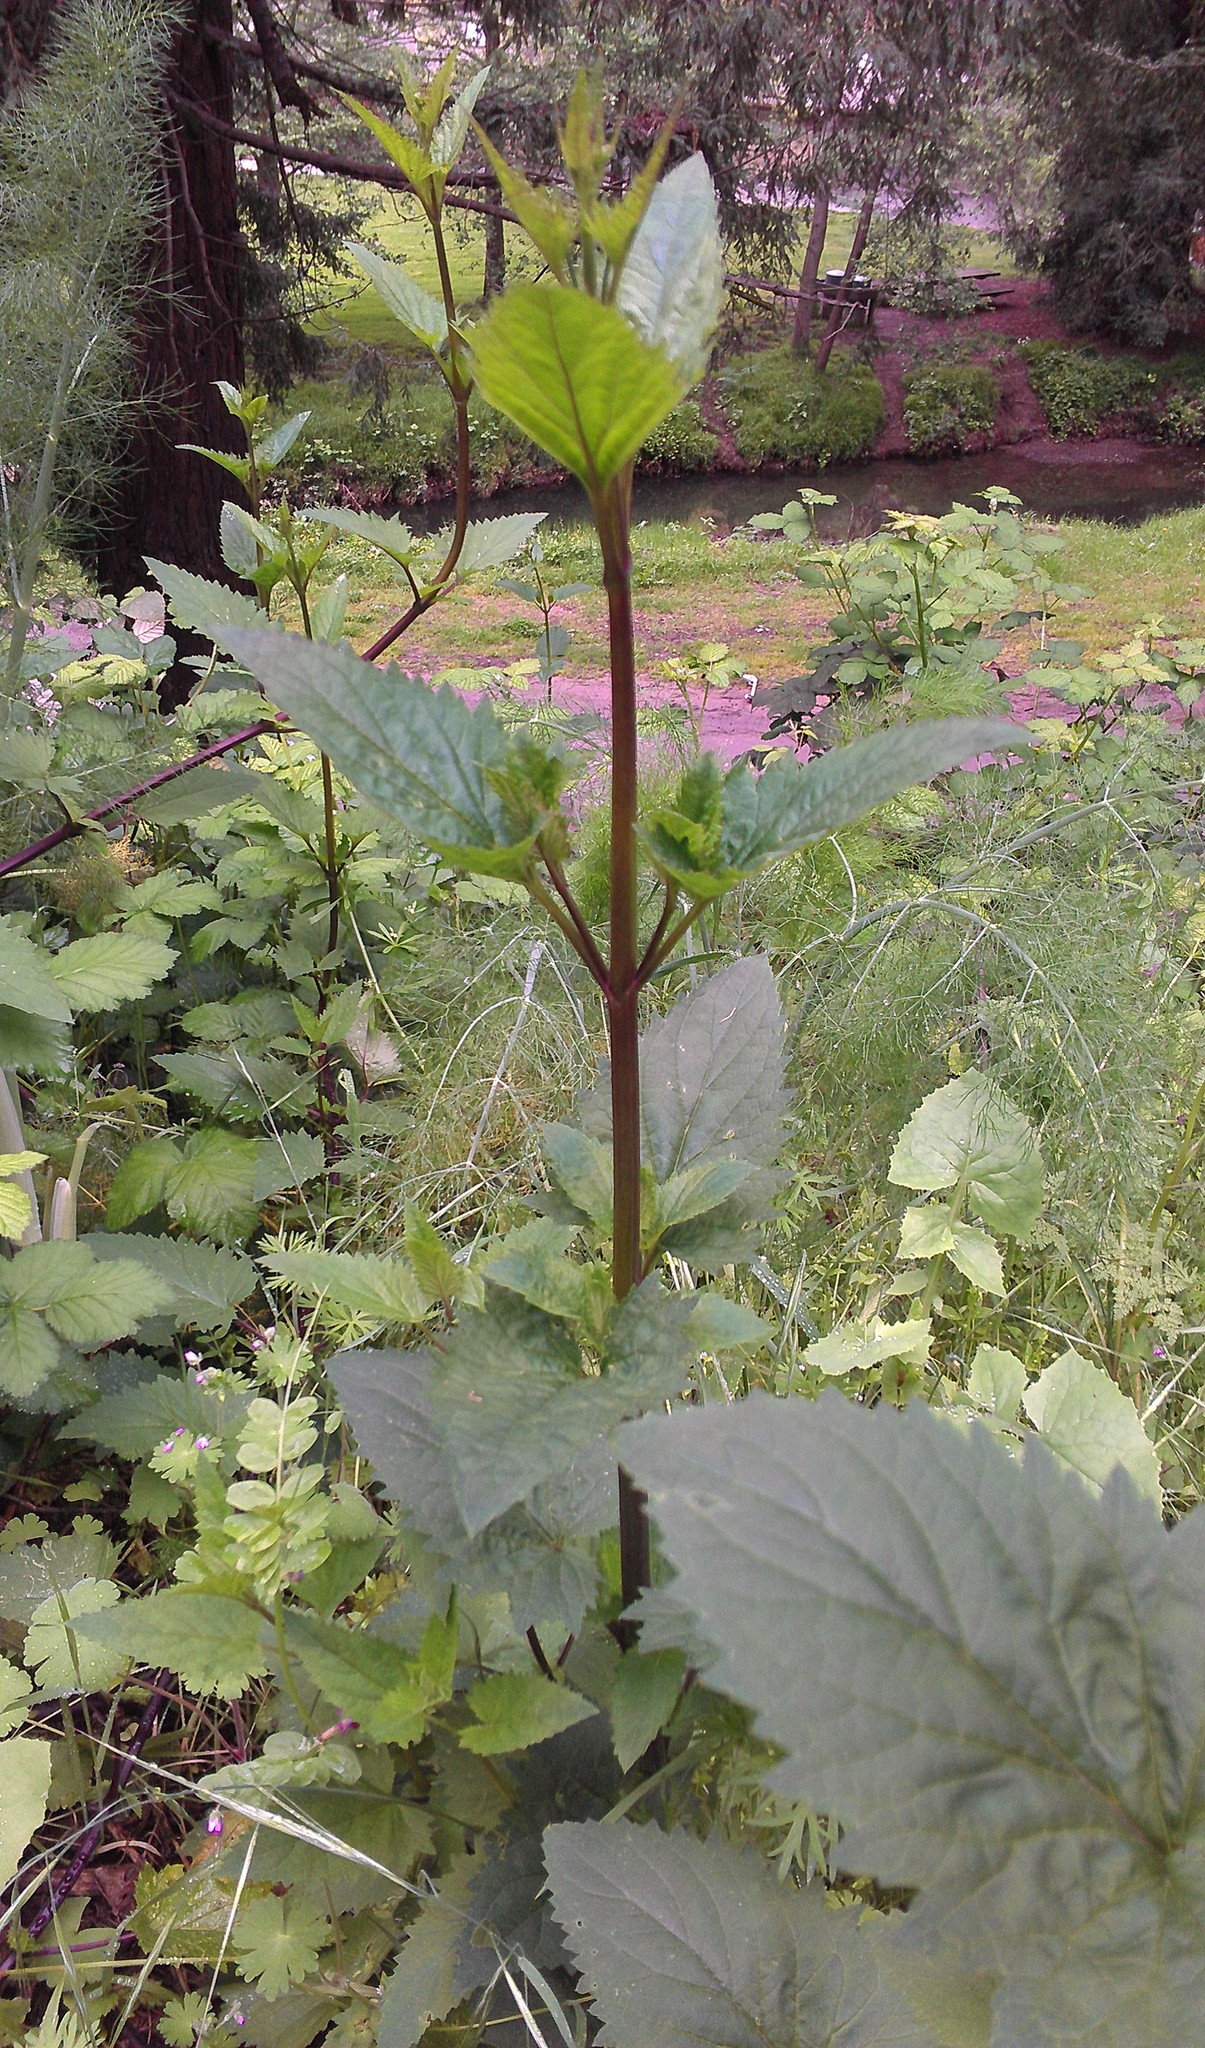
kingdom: Plantae
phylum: Tracheophyta
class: Magnoliopsida
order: Lamiales
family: Scrophulariaceae
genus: Scrophularia
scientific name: Scrophularia californica
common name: California figwort
